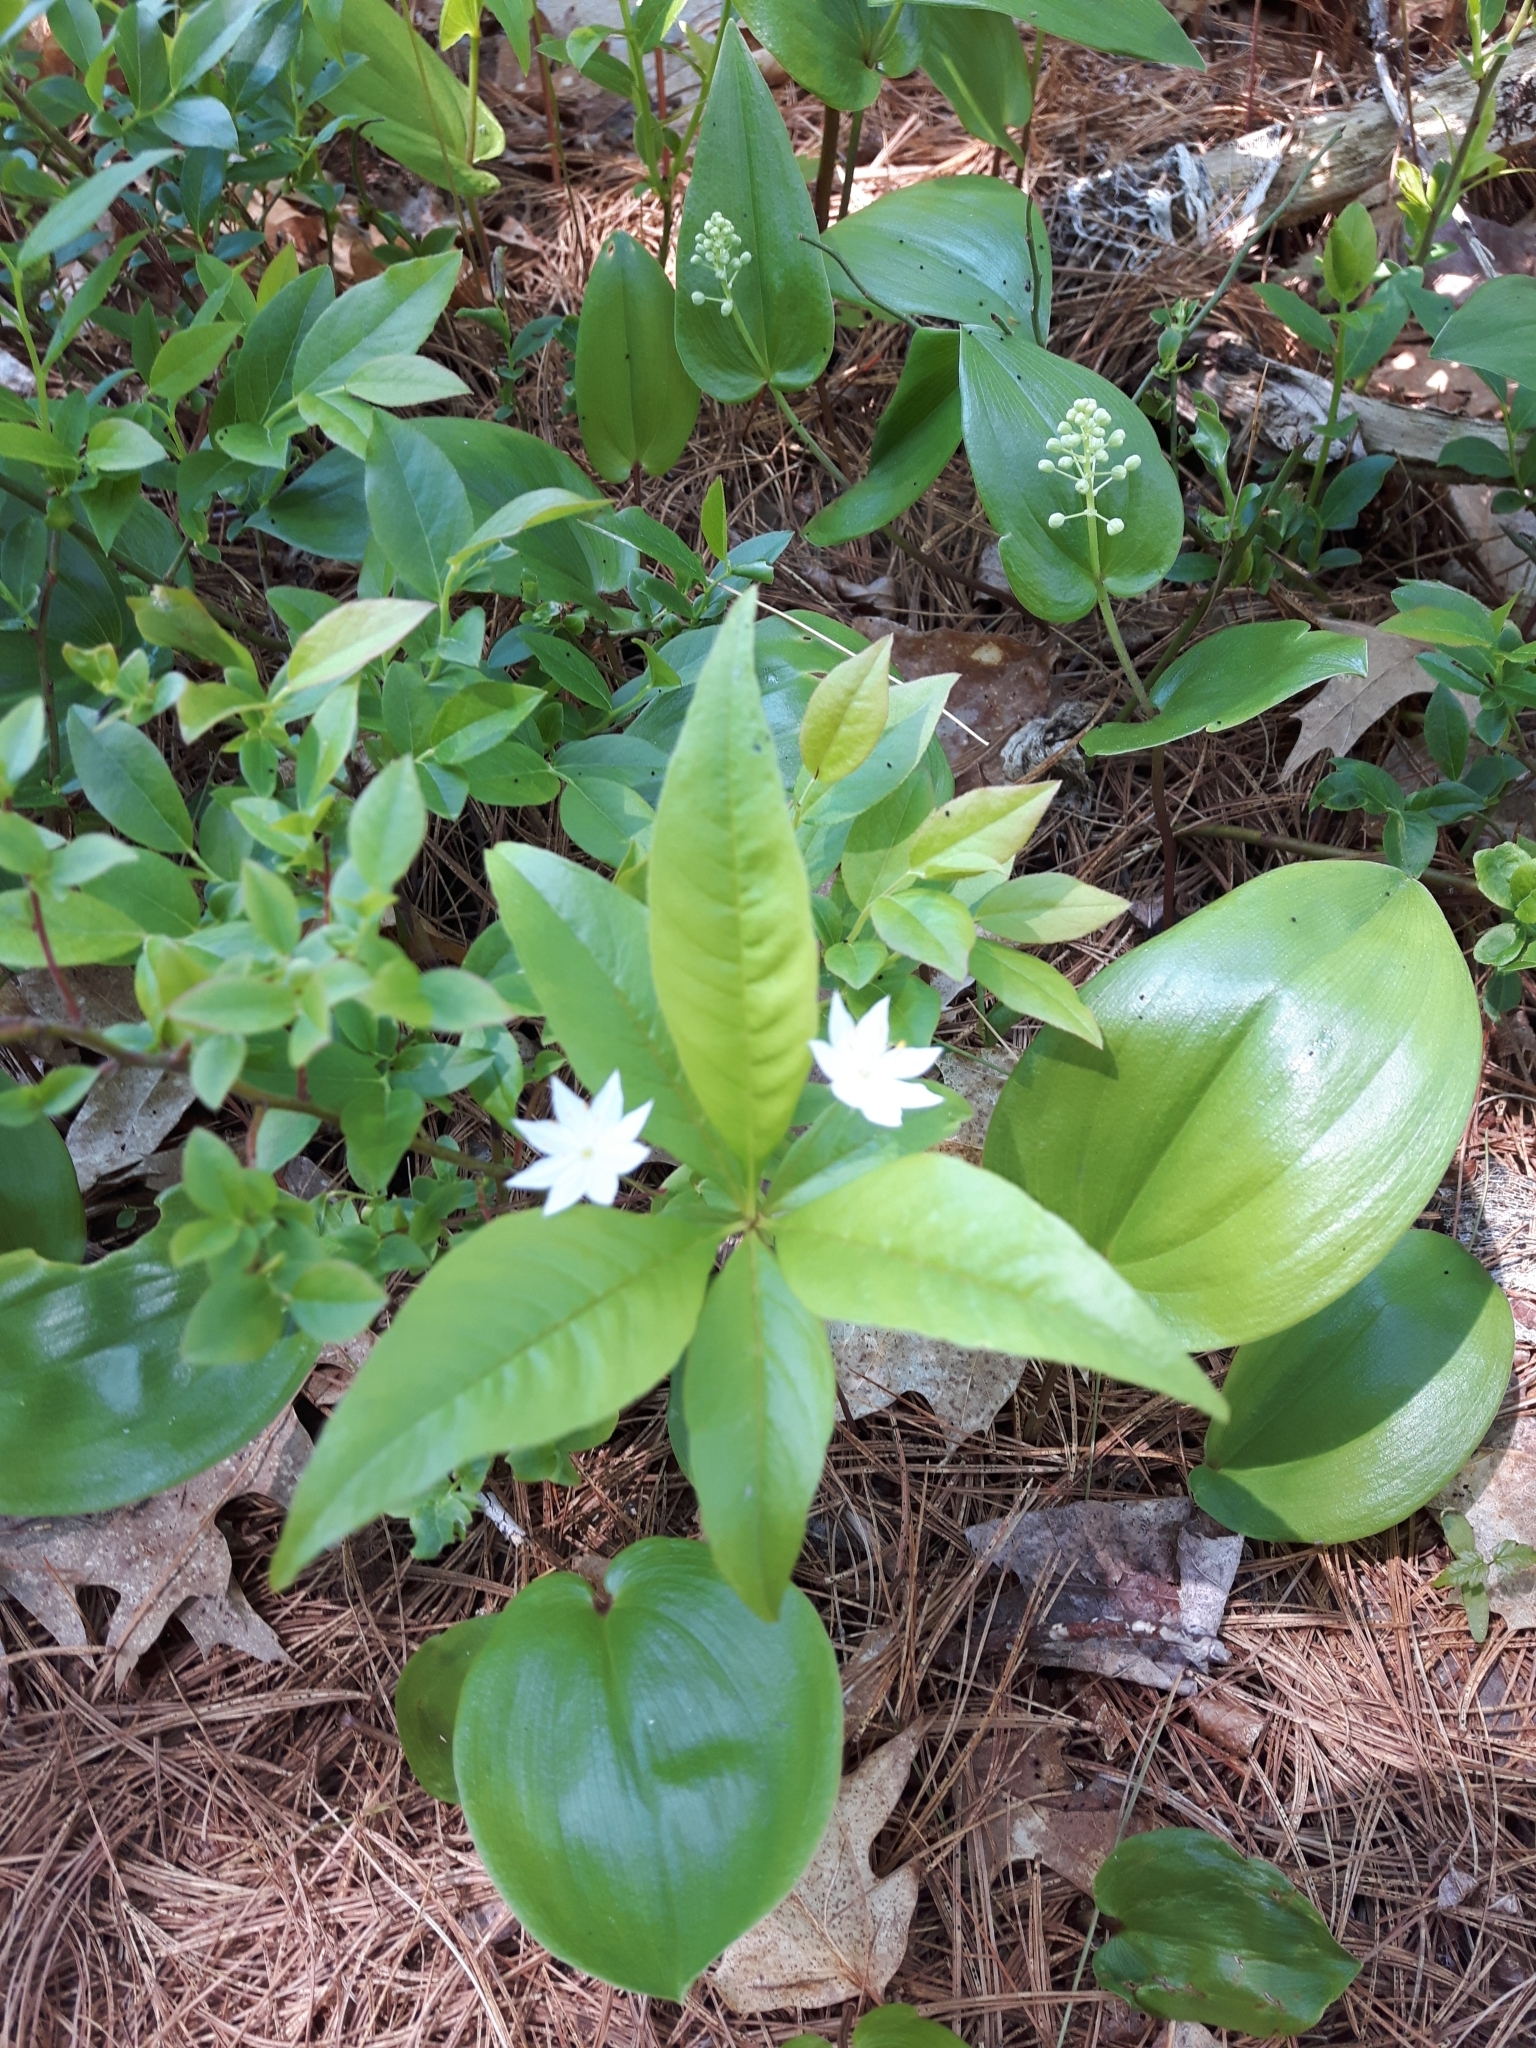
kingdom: Plantae
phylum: Tracheophyta
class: Magnoliopsida
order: Ericales
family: Primulaceae
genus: Lysimachia
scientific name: Lysimachia borealis
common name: American starflower
